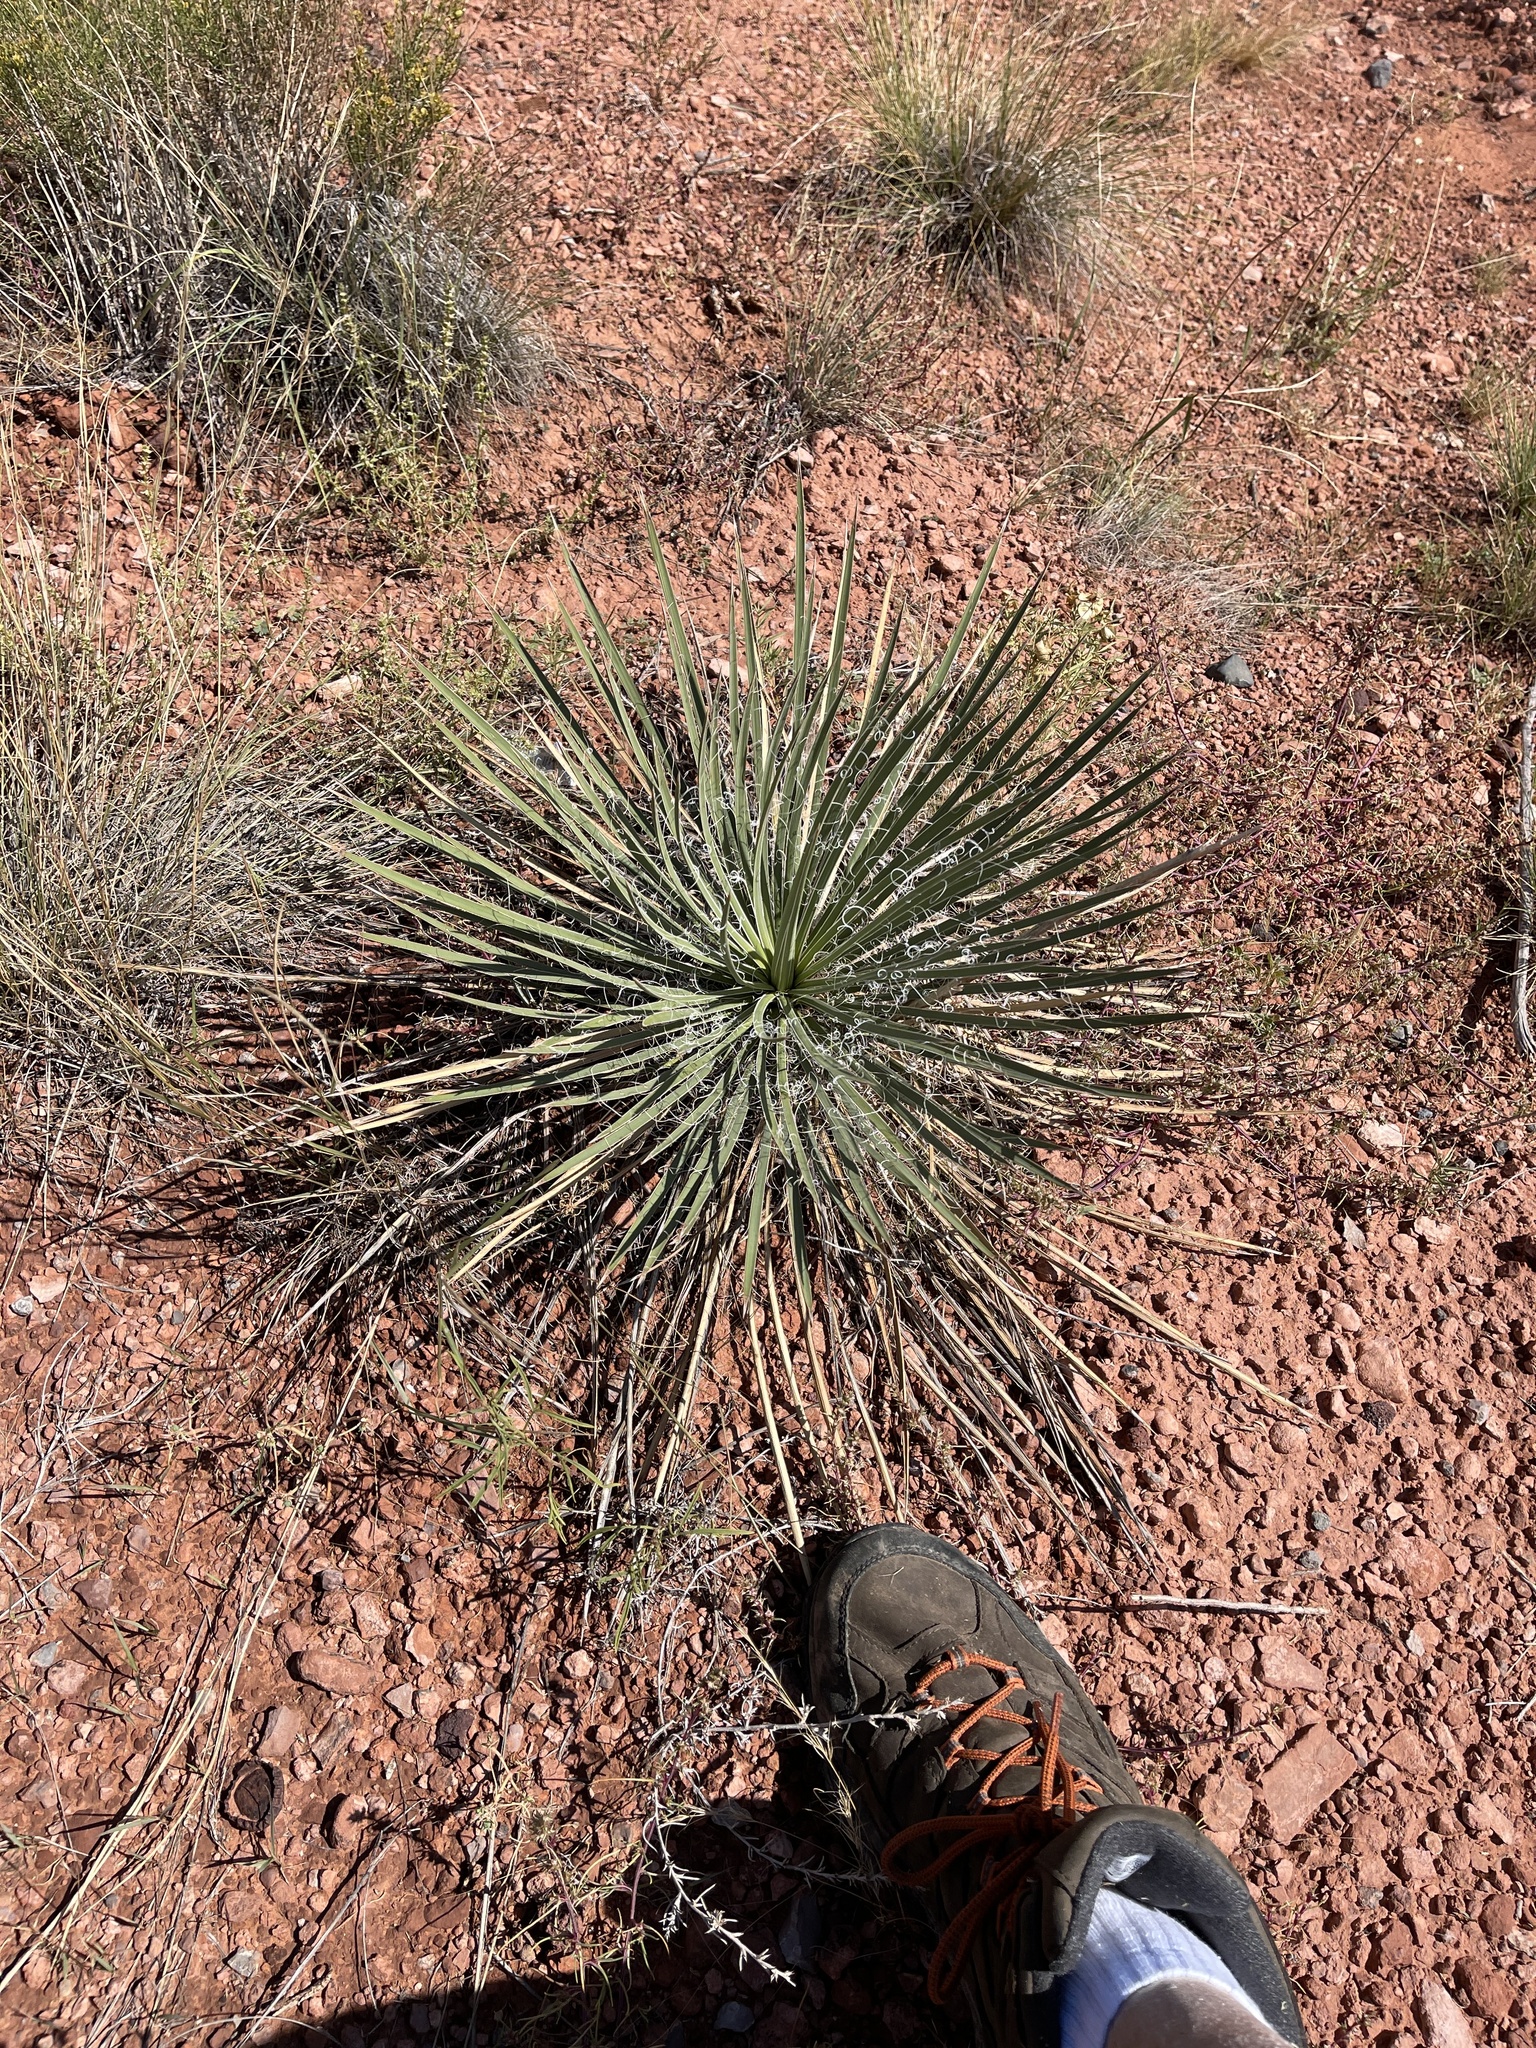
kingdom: Plantae
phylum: Tracheophyta
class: Liliopsida
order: Asparagales
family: Asparagaceae
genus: Yucca
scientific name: Yucca angustissima
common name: Narrowleaf yucca
